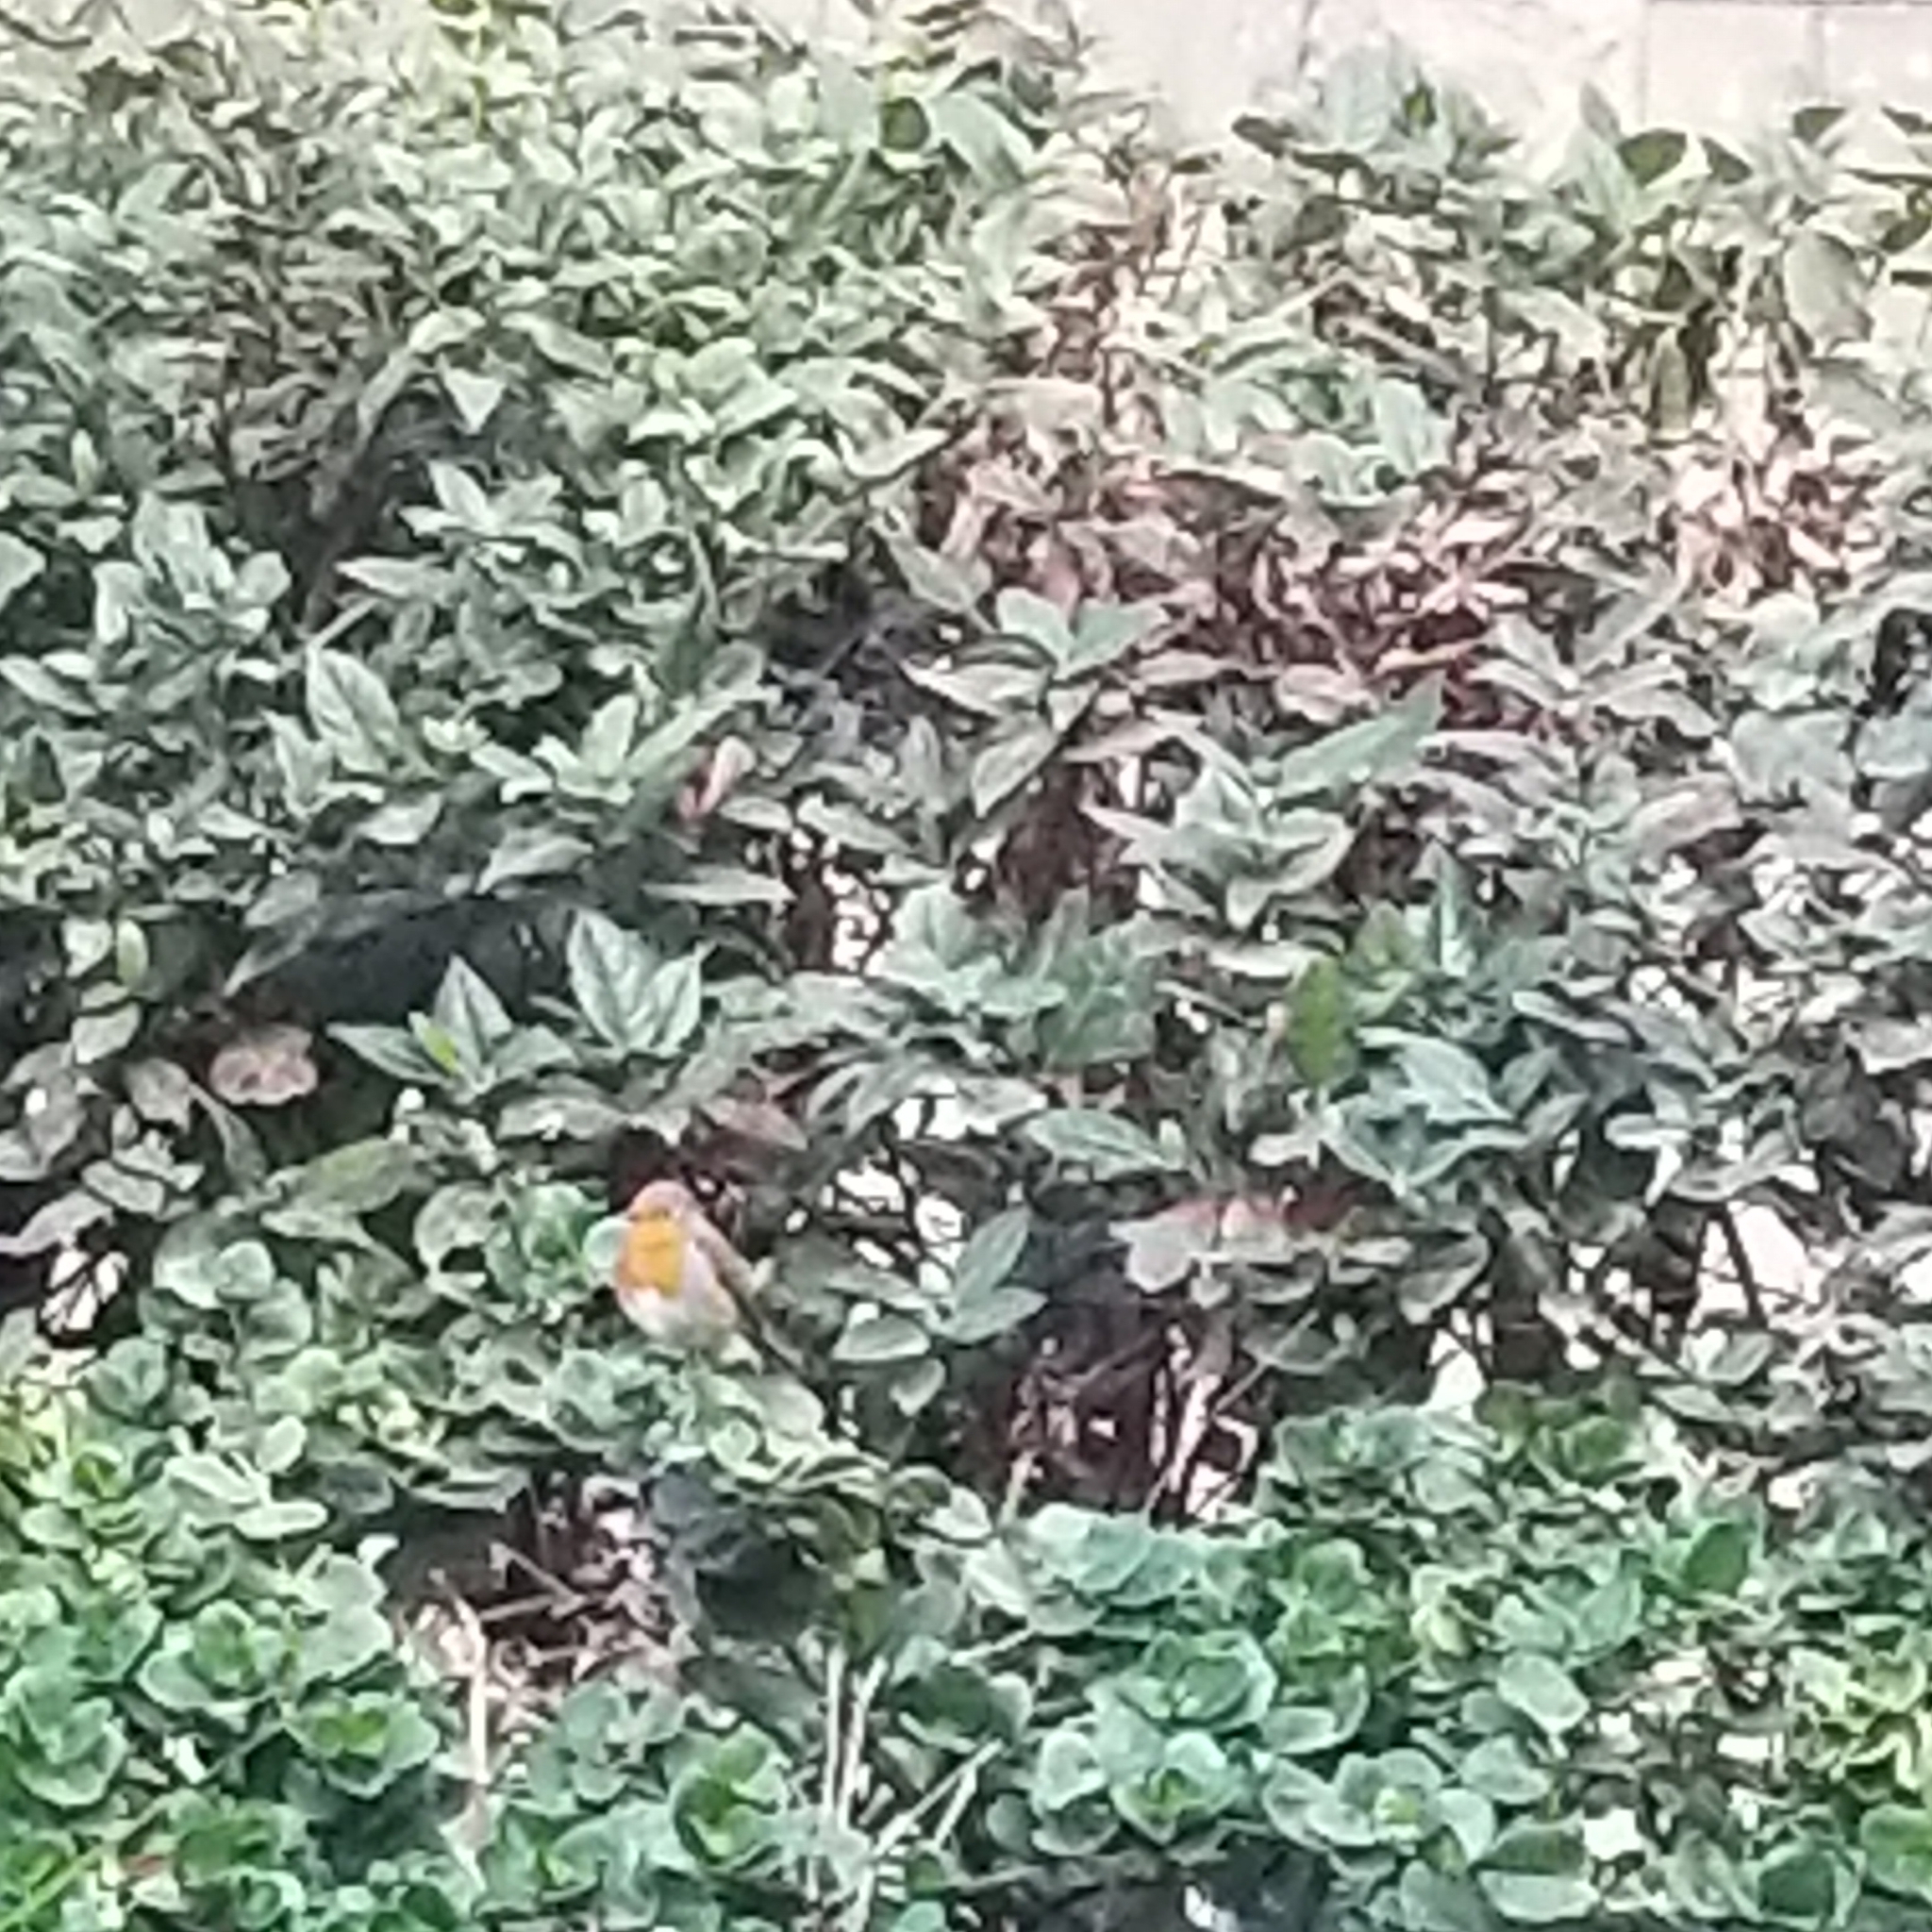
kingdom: Animalia
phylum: Chordata
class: Aves
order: Passeriformes
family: Muscicapidae
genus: Erithacus
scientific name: Erithacus rubecula
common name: European robin
